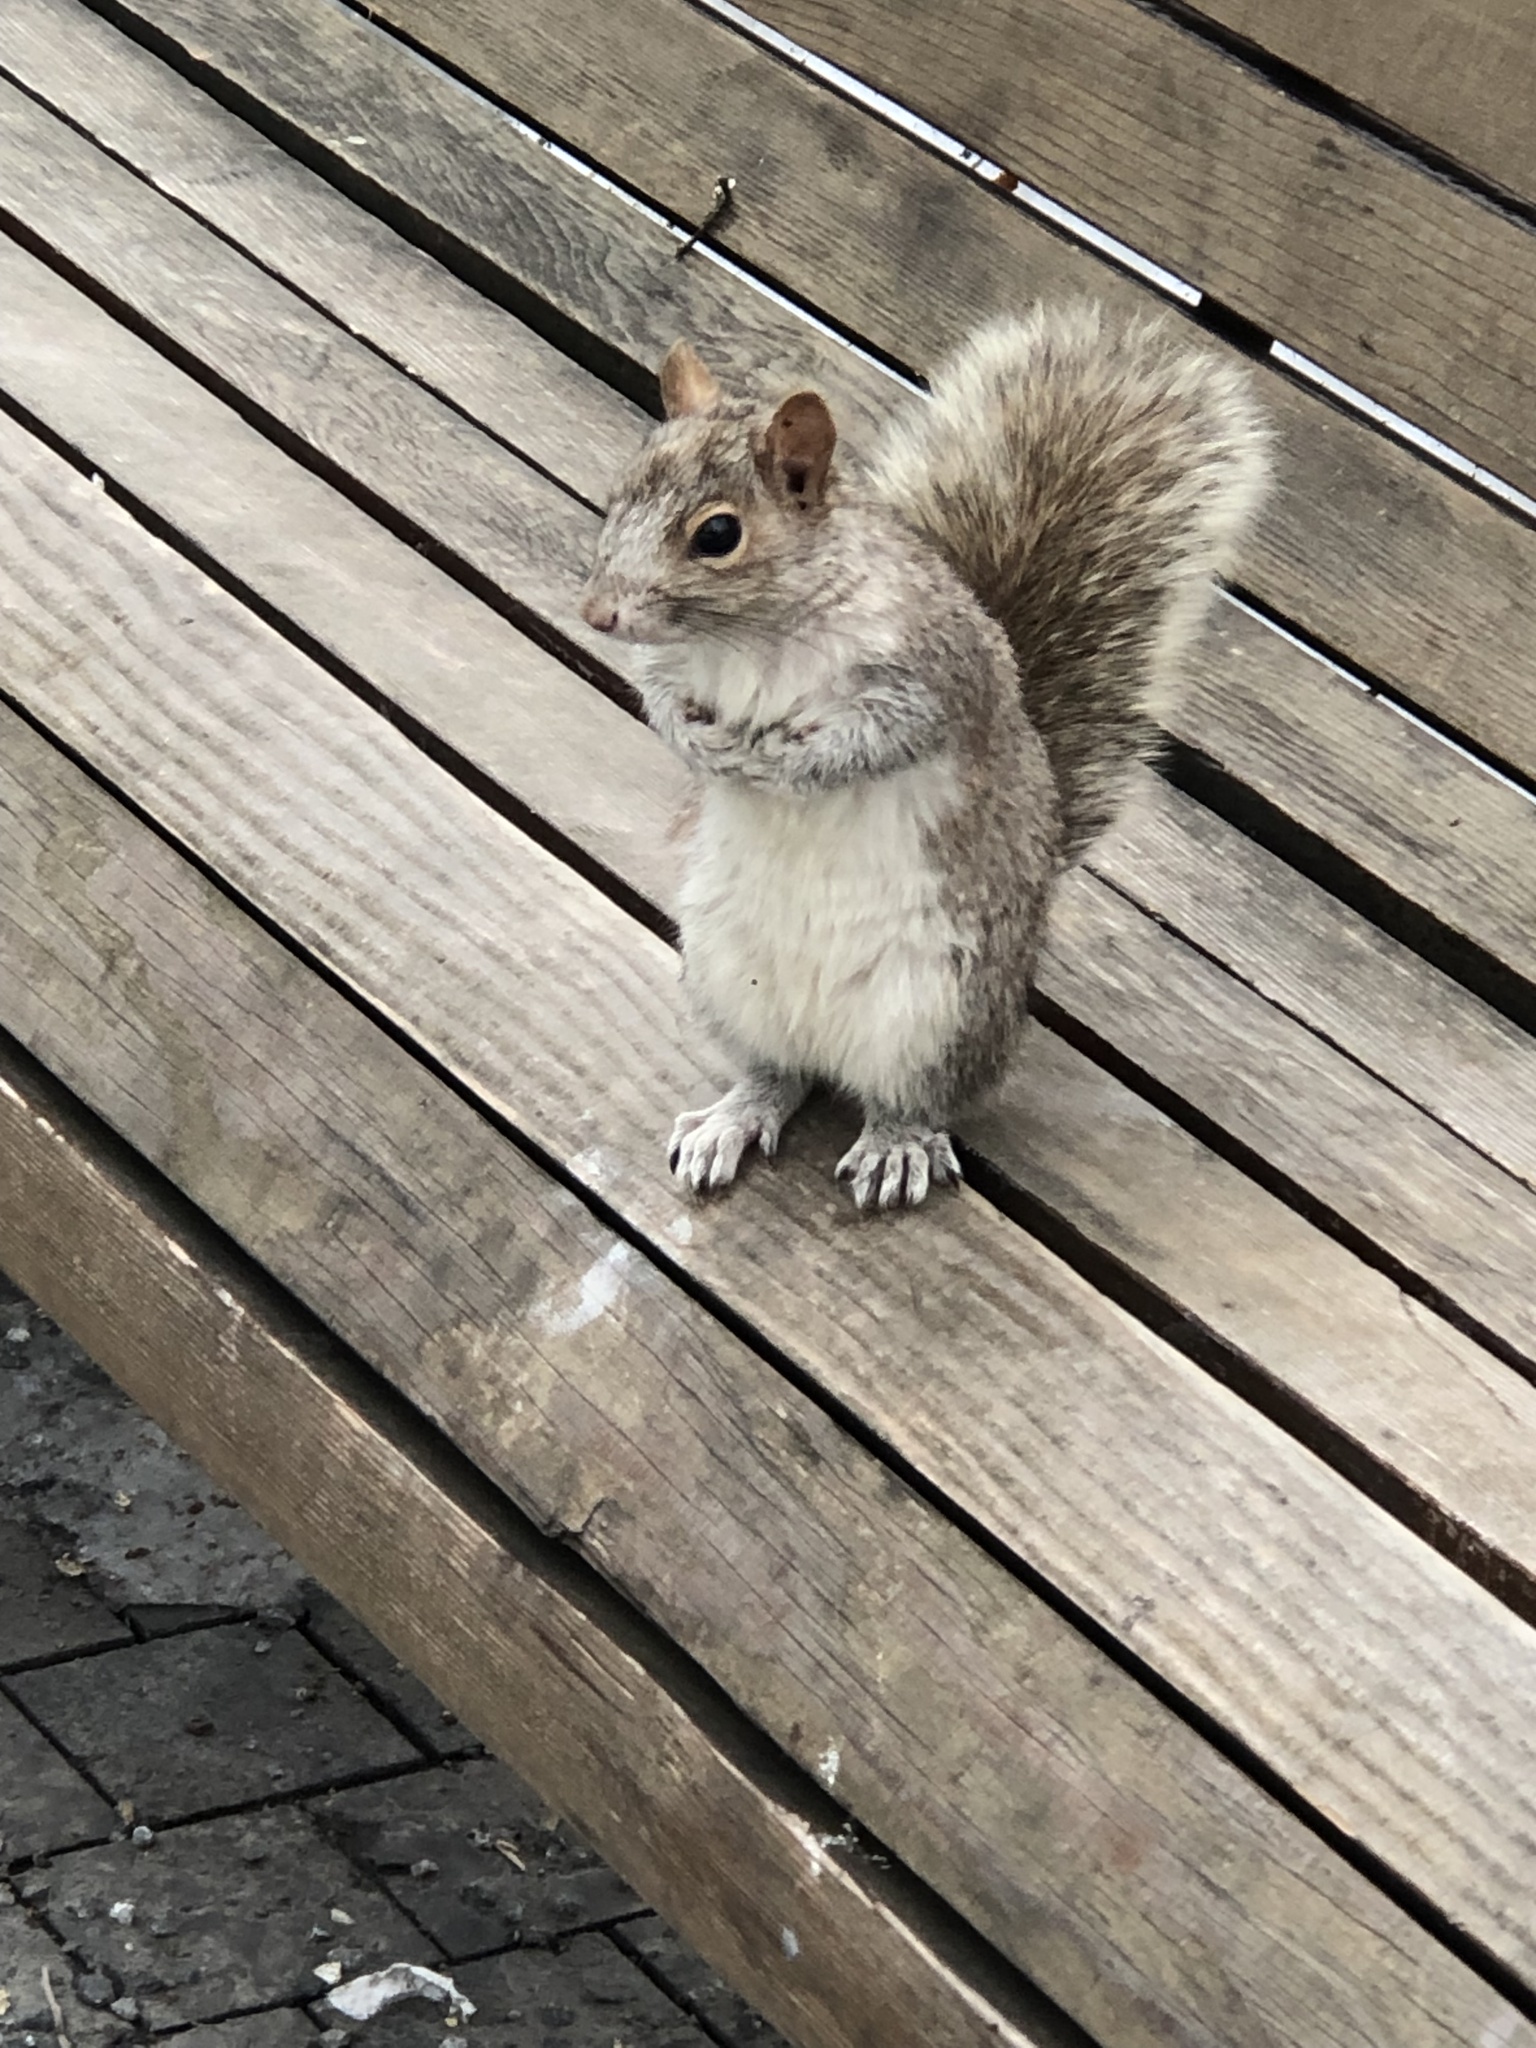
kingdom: Animalia
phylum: Chordata
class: Mammalia
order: Rodentia
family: Sciuridae
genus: Sciurus
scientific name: Sciurus carolinensis
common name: Eastern gray squirrel
